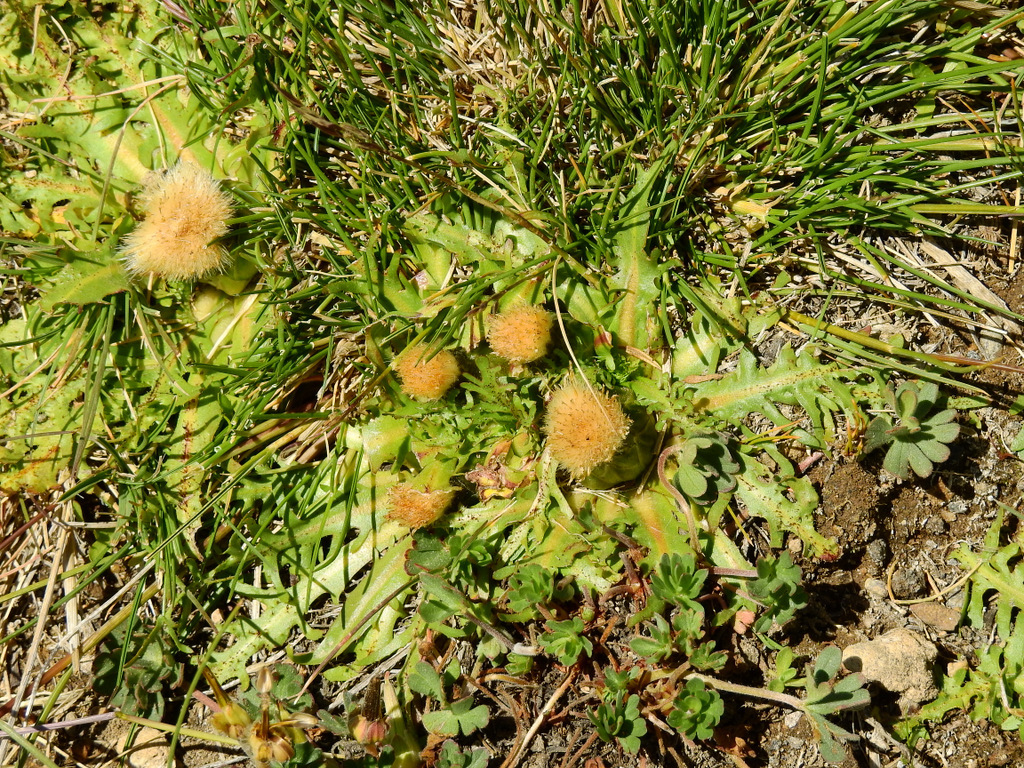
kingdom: Plantae
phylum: Tracheophyta
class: Magnoliopsida
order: Asterales
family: Asteraceae
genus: Hypochaeris
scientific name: Hypochaeris acaulis
